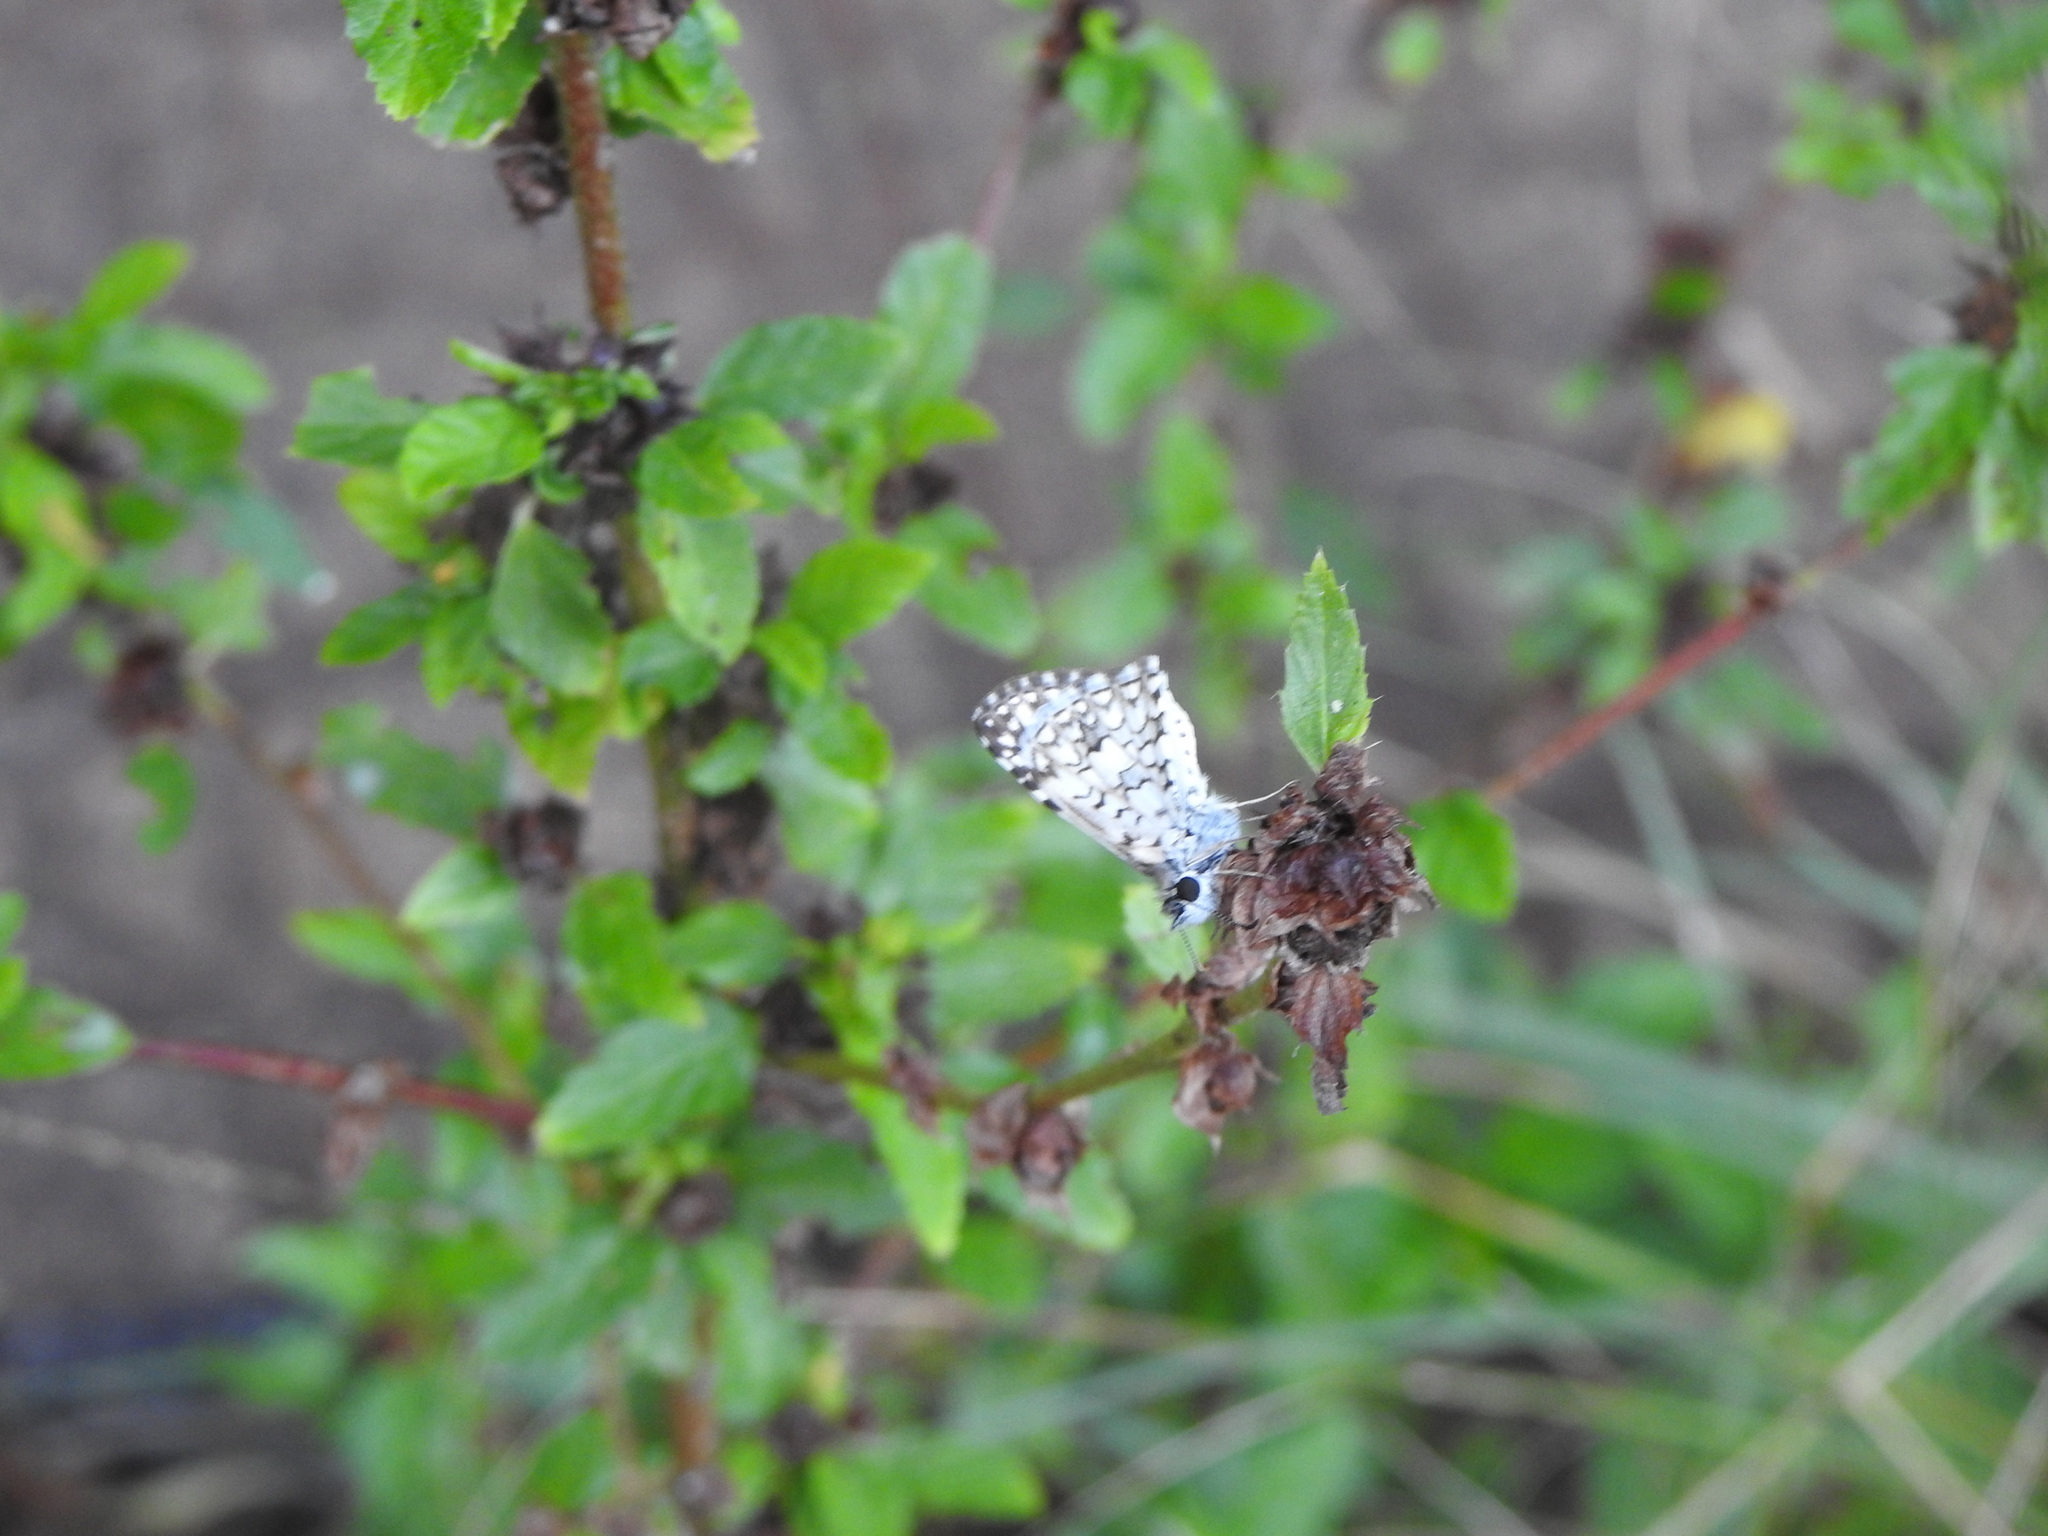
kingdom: Animalia
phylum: Arthropoda
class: Insecta
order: Lepidoptera
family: Hesperiidae
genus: Pyrgus
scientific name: Pyrgus oileus
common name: Tropical checkered-skipper
